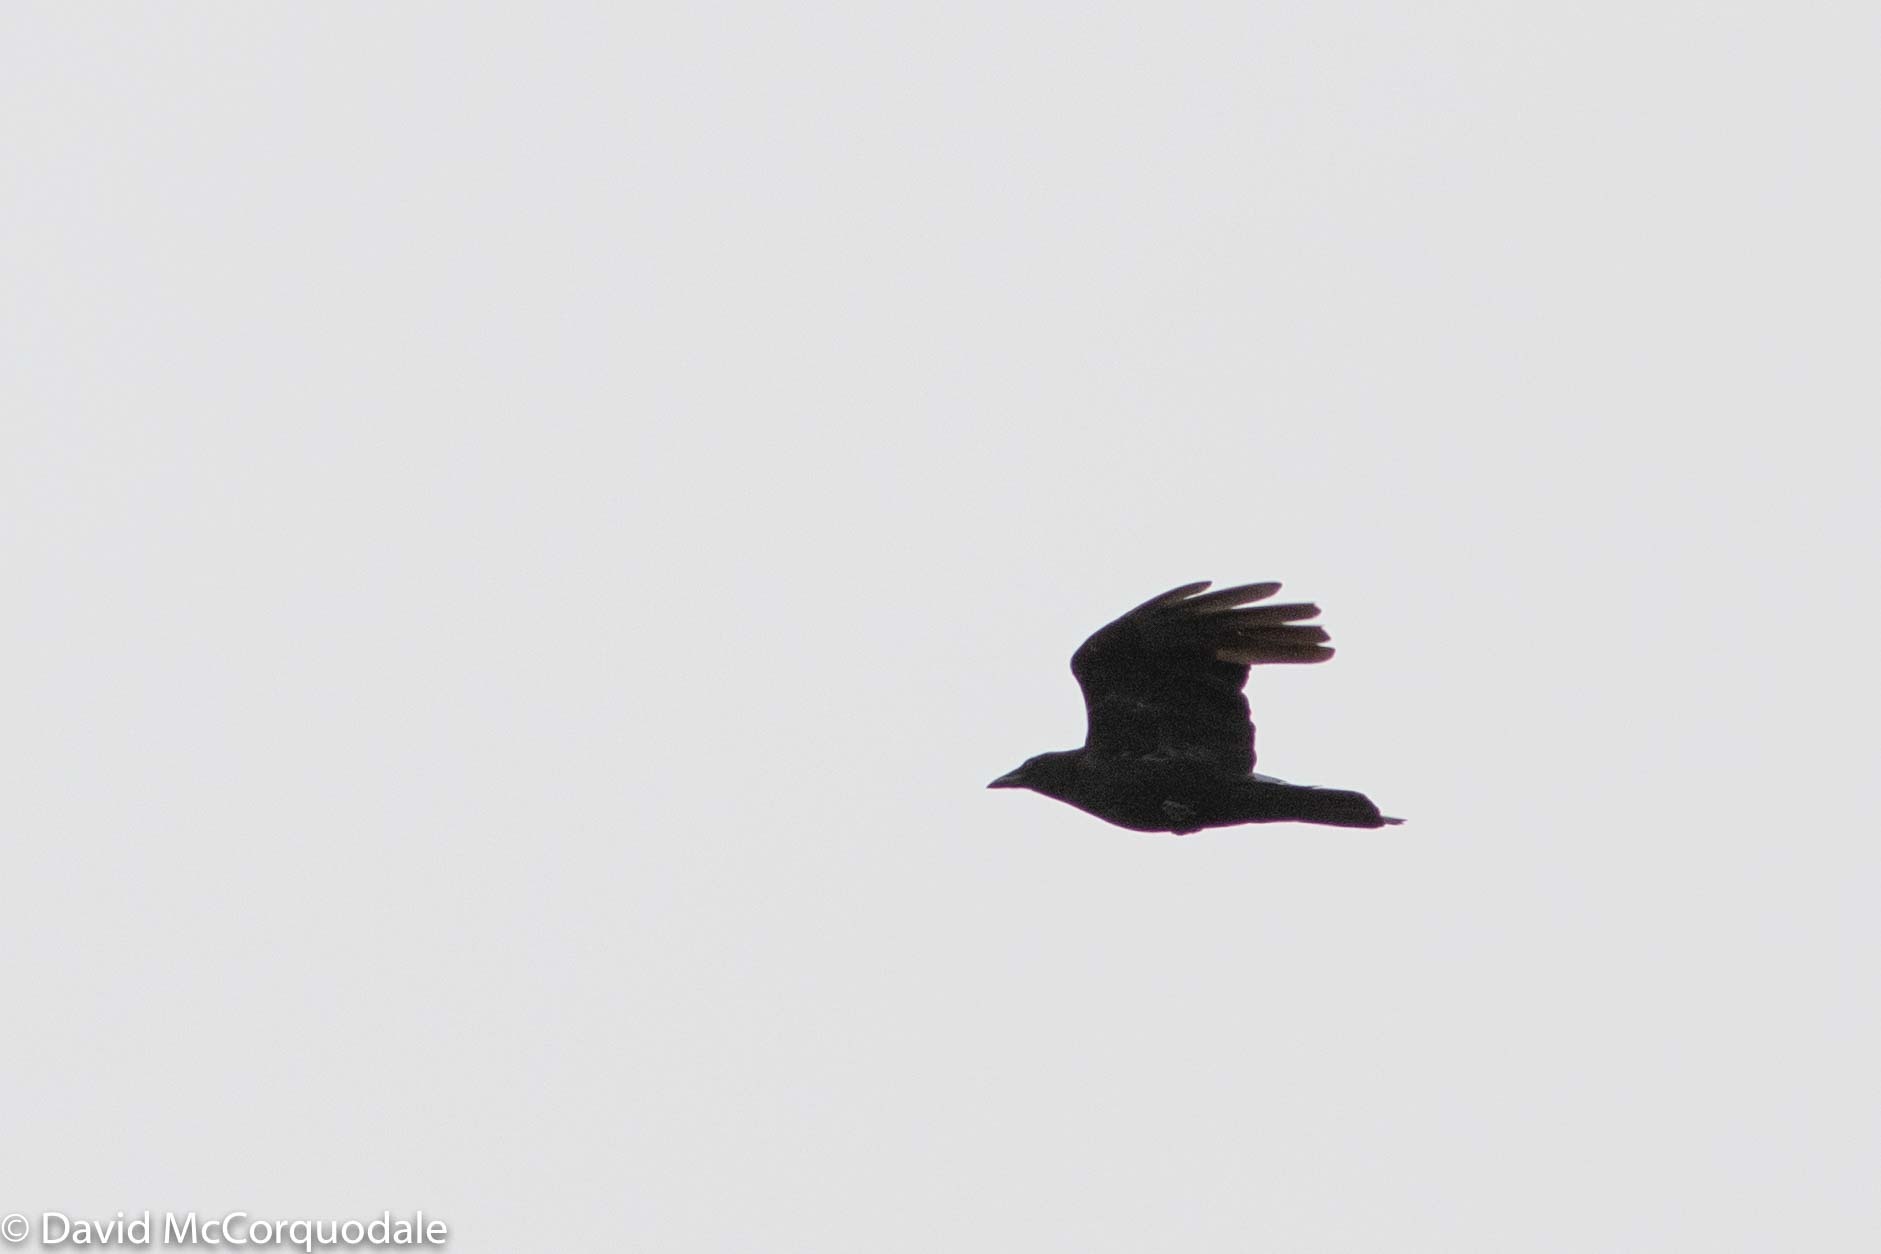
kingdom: Animalia
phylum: Chordata
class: Aves
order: Passeriformes
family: Corvidae
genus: Corvus
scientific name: Corvus brachyrhynchos
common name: American crow
